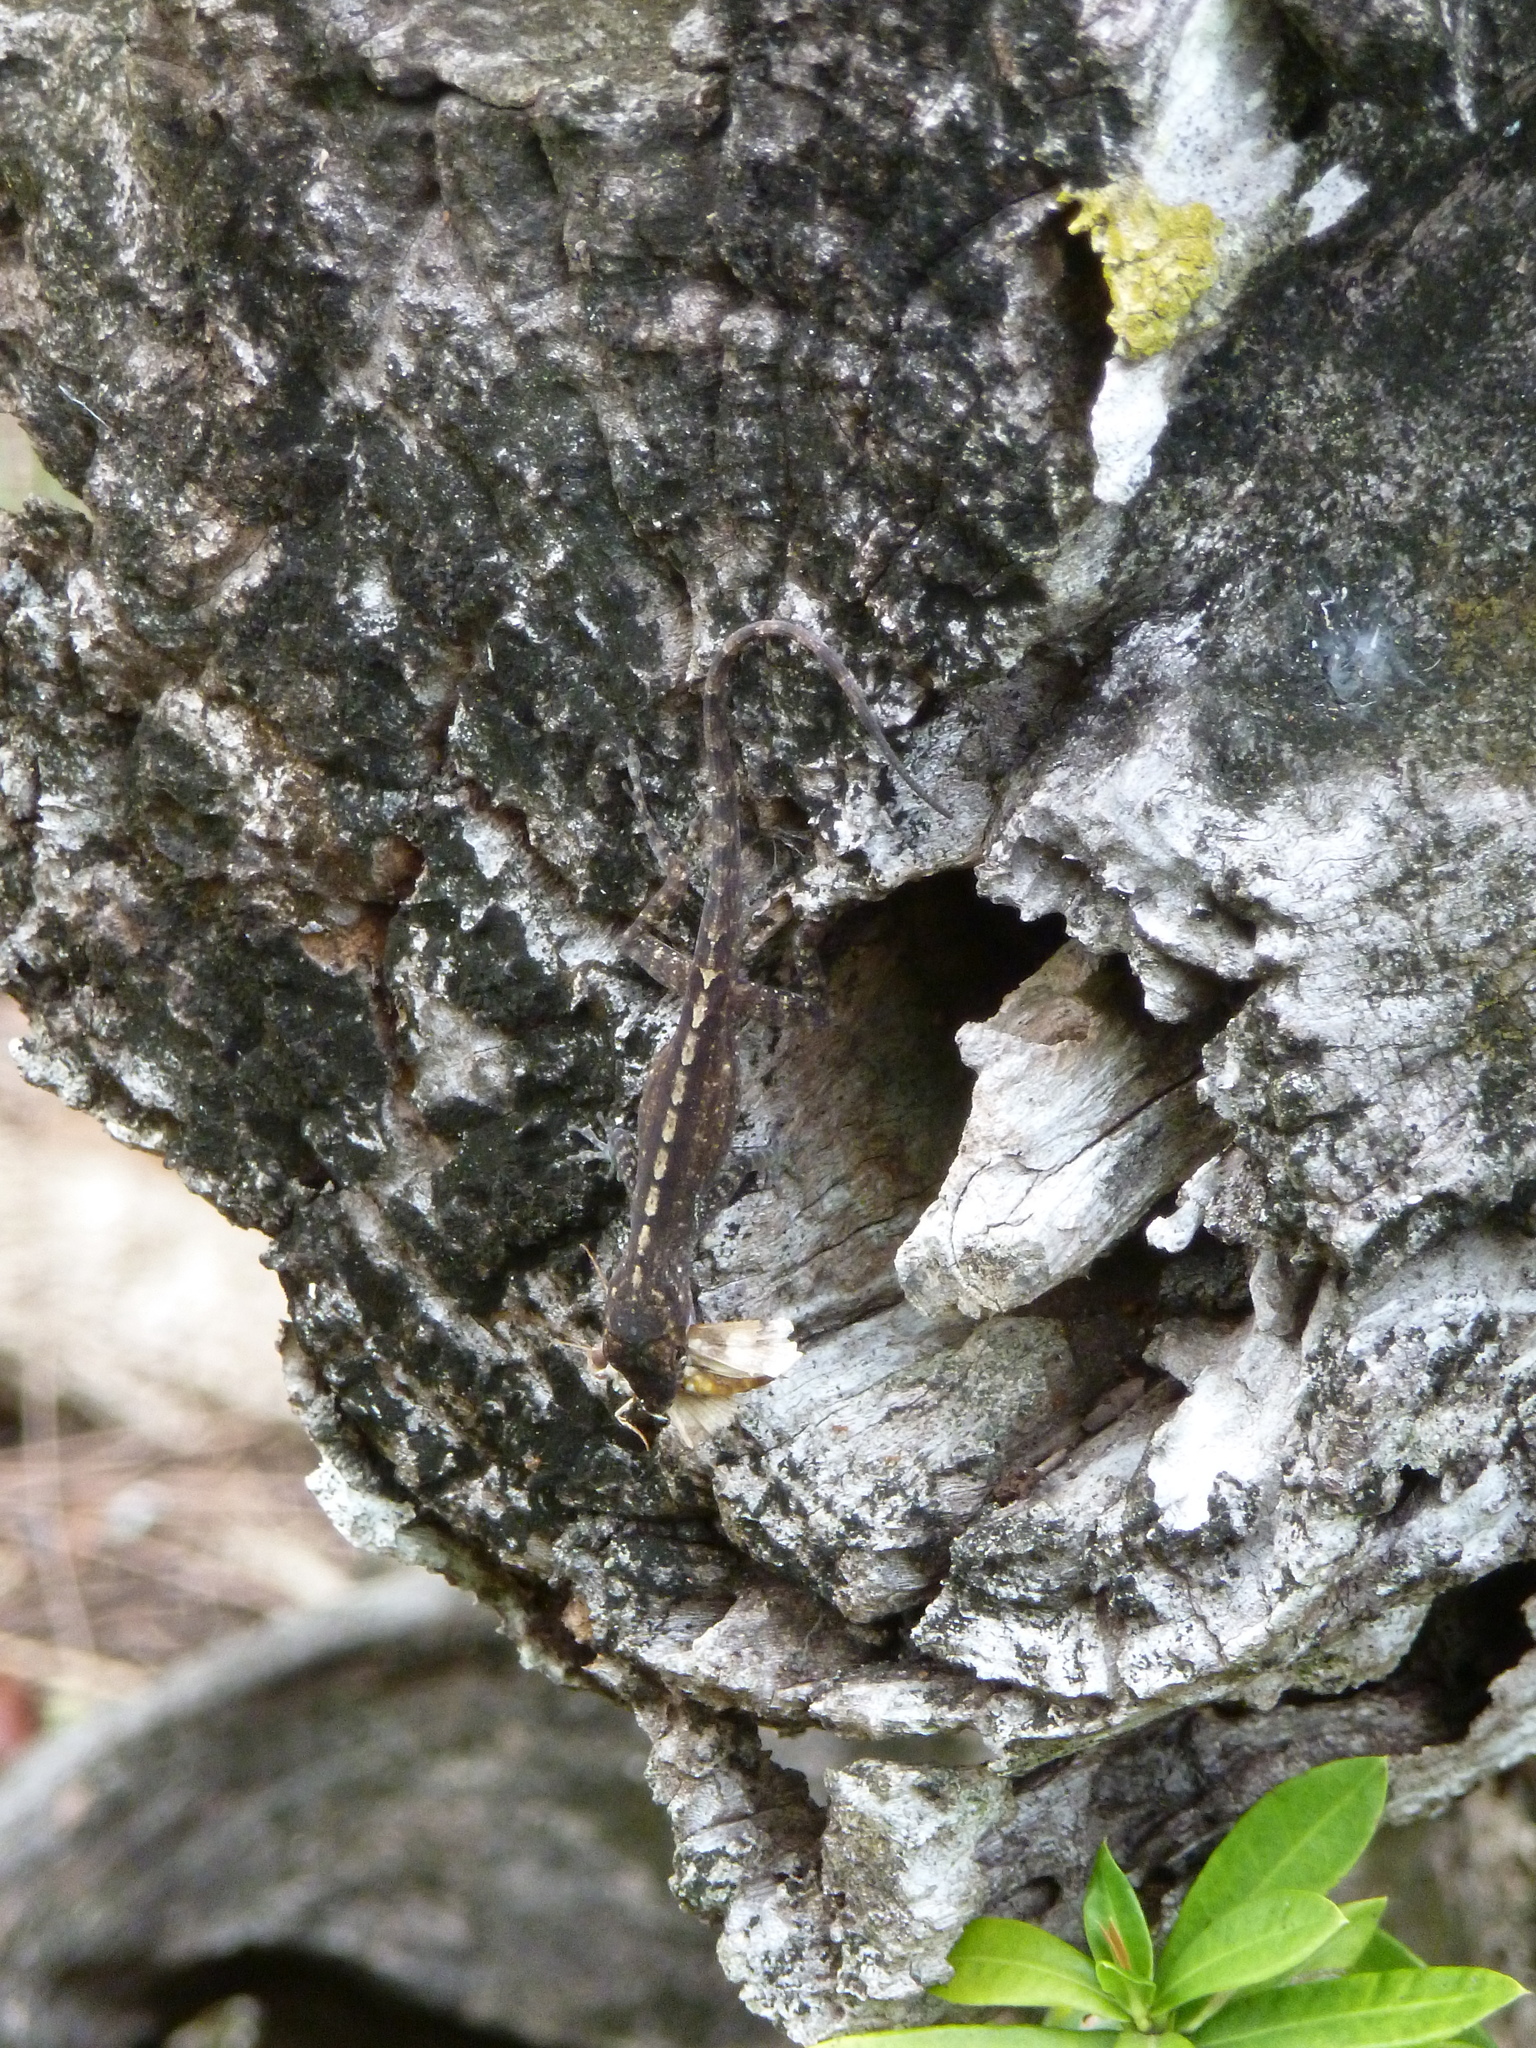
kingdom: Animalia
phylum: Chordata
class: Squamata
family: Dactyloidae
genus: Anolis
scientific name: Anolis marmoratus
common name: Guadeloupe anole
